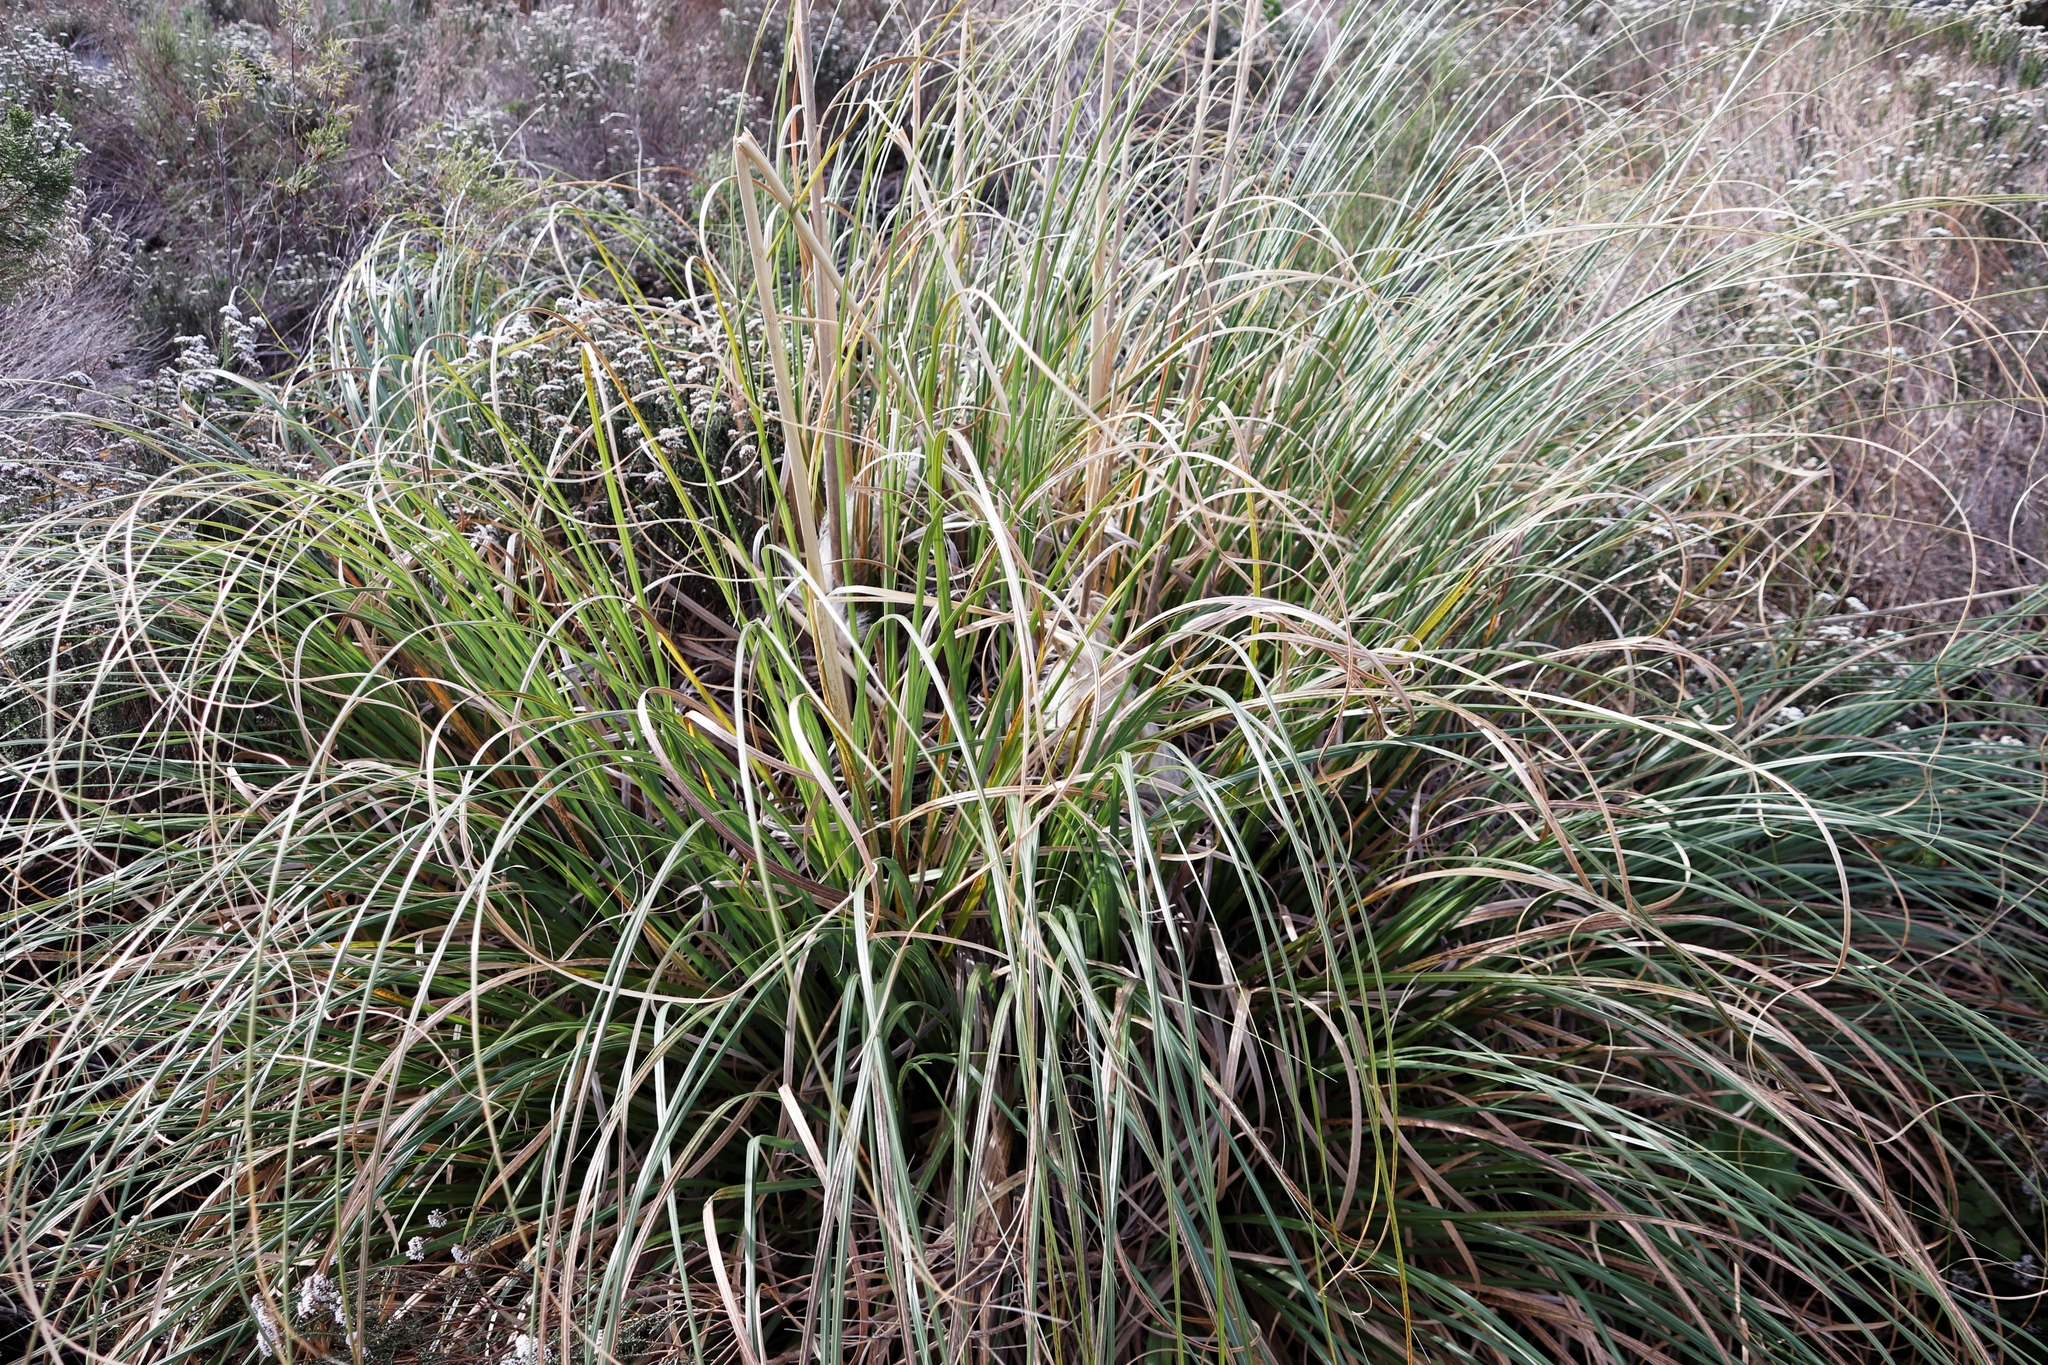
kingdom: Plantae
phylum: Tracheophyta
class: Liliopsida
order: Poales
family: Poaceae
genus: Cortaderia
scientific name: Cortaderia selloana
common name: Uruguayan pampas grass
